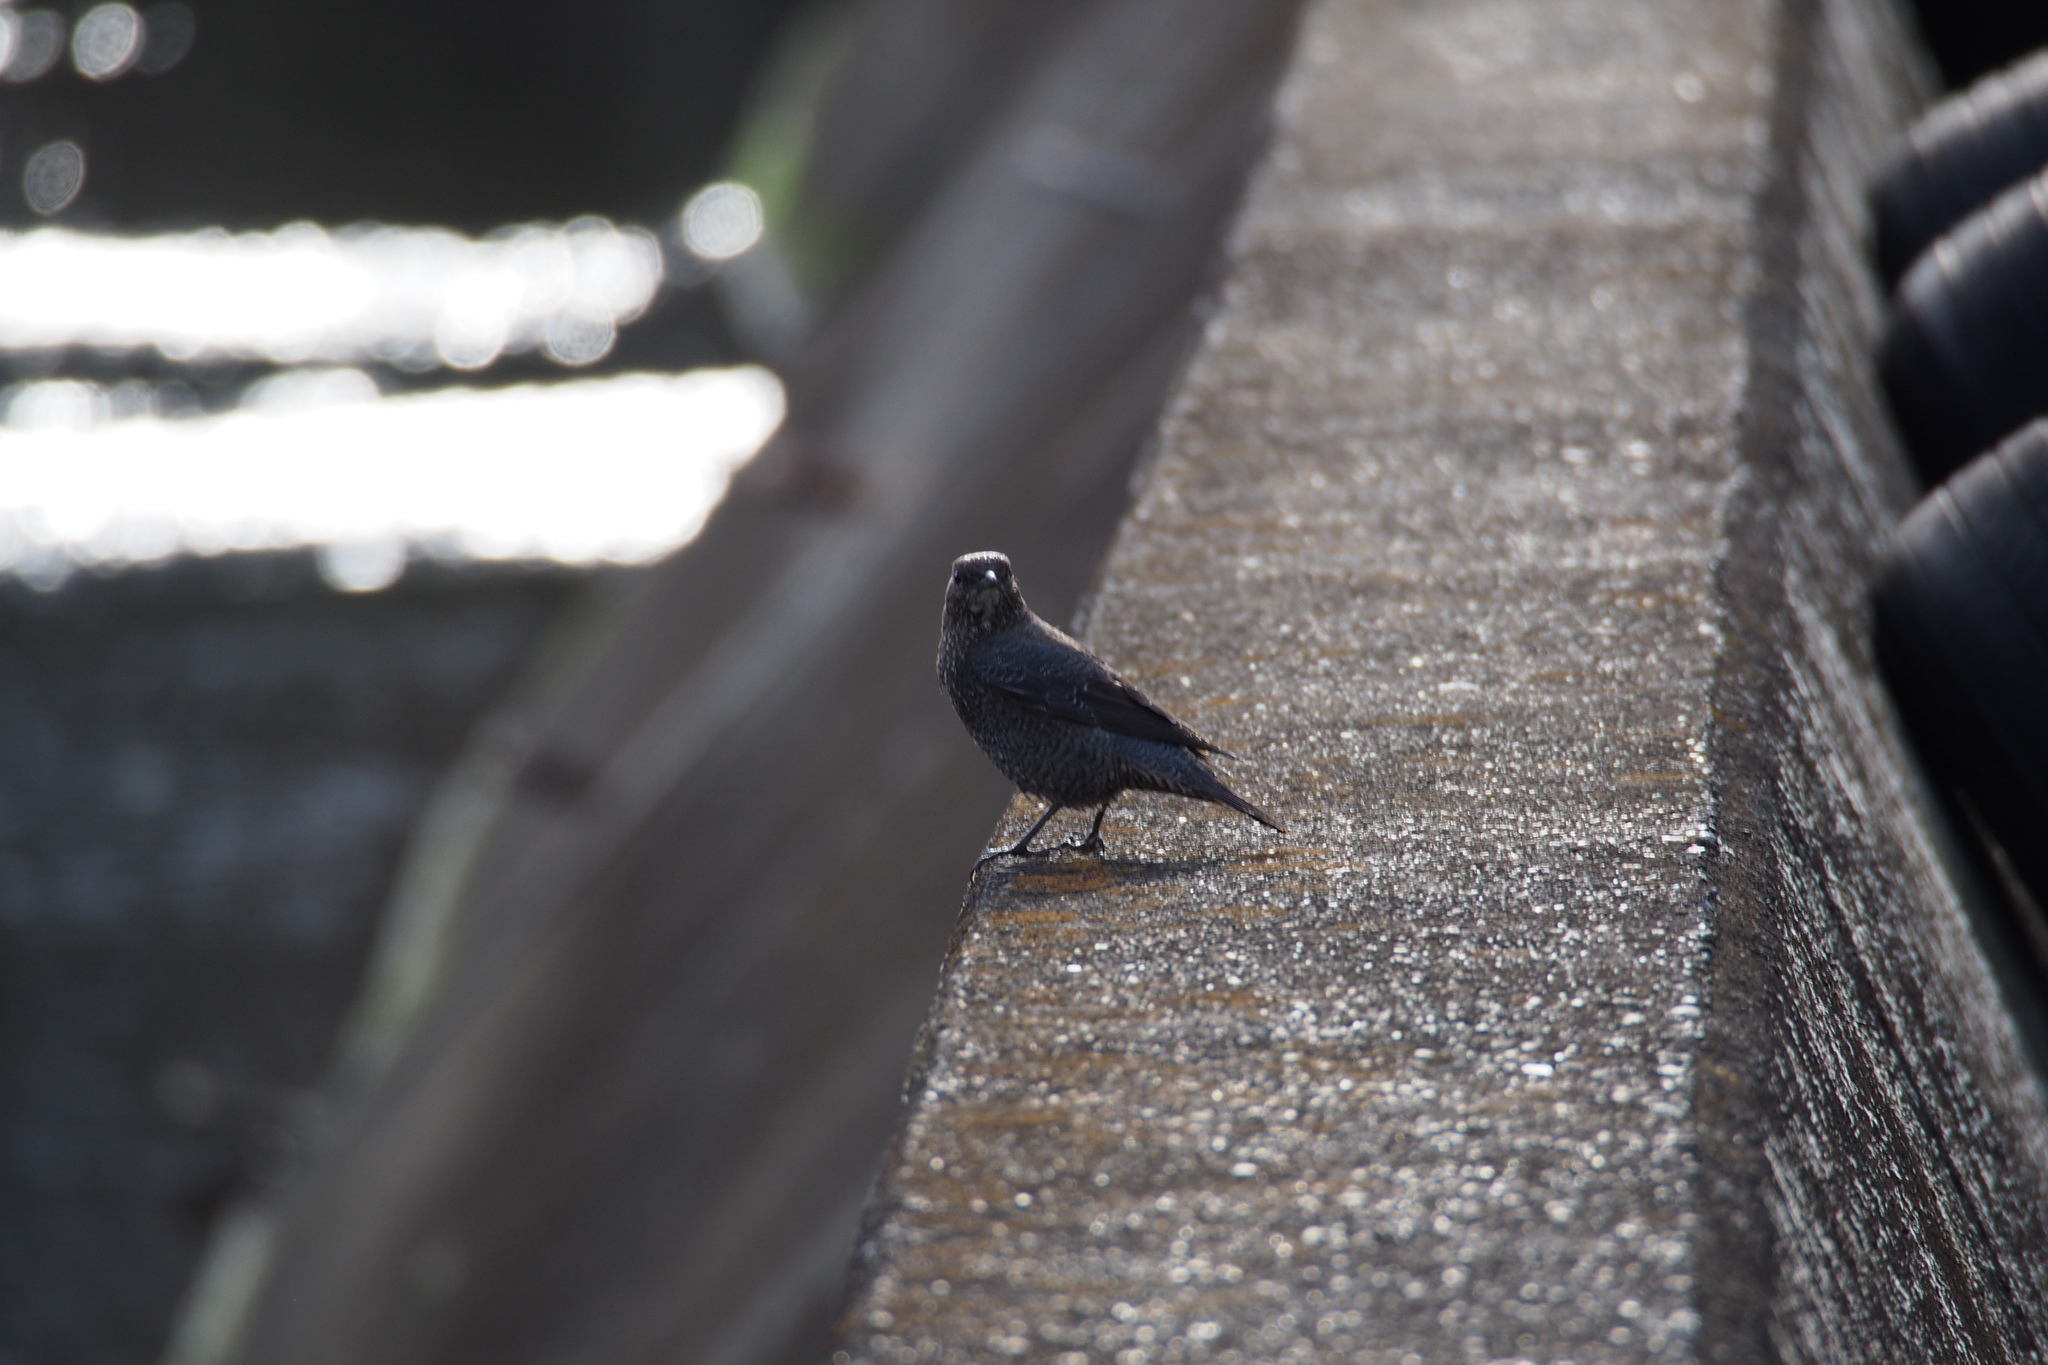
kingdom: Animalia
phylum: Chordata
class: Aves
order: Passeriformes
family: Muscicapidae
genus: Monticola
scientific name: Monticola solitarius
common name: Blue rock thrush
